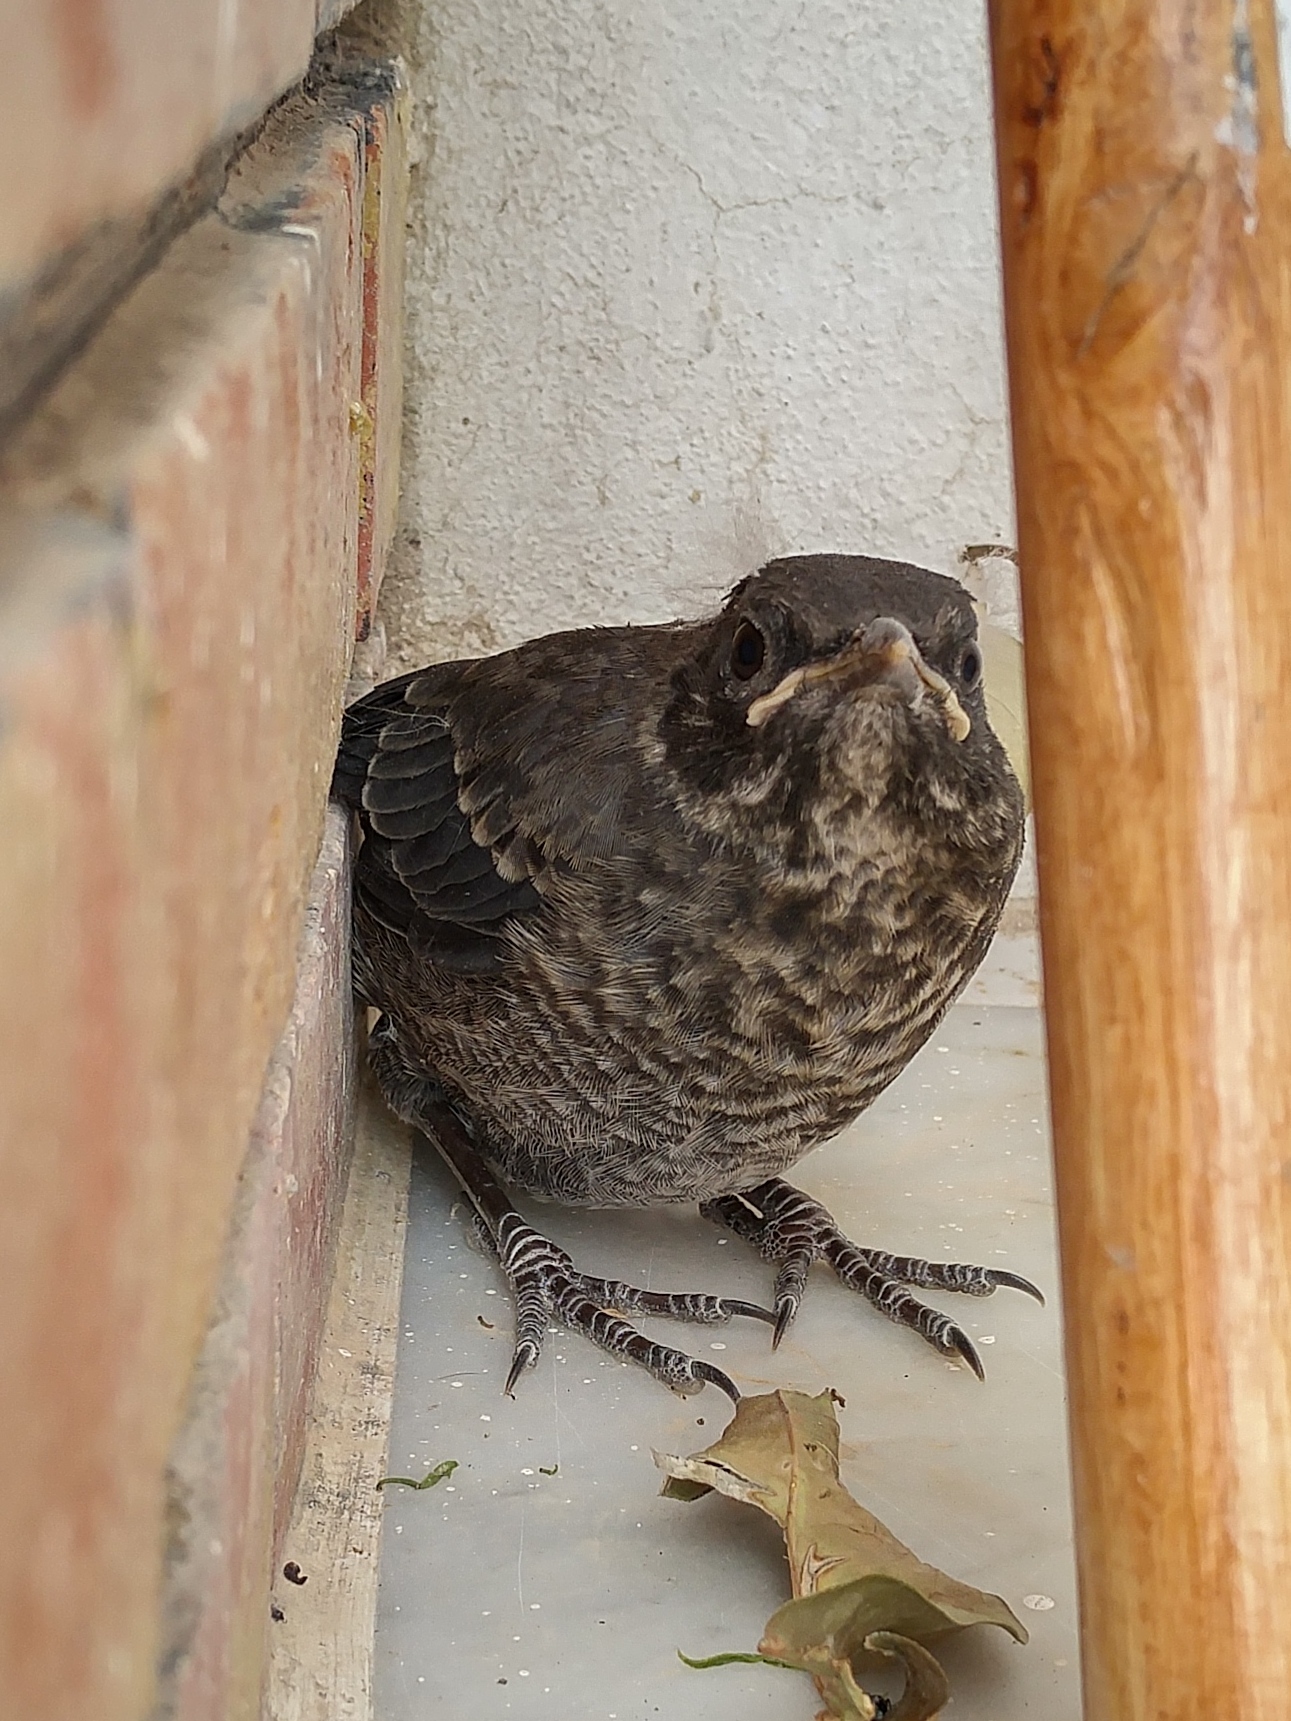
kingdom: Animalia
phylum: Chordata
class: Aves
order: Passeriformes
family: Turdidae
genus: Turdus
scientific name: Turdus merula
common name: Common blackbird
